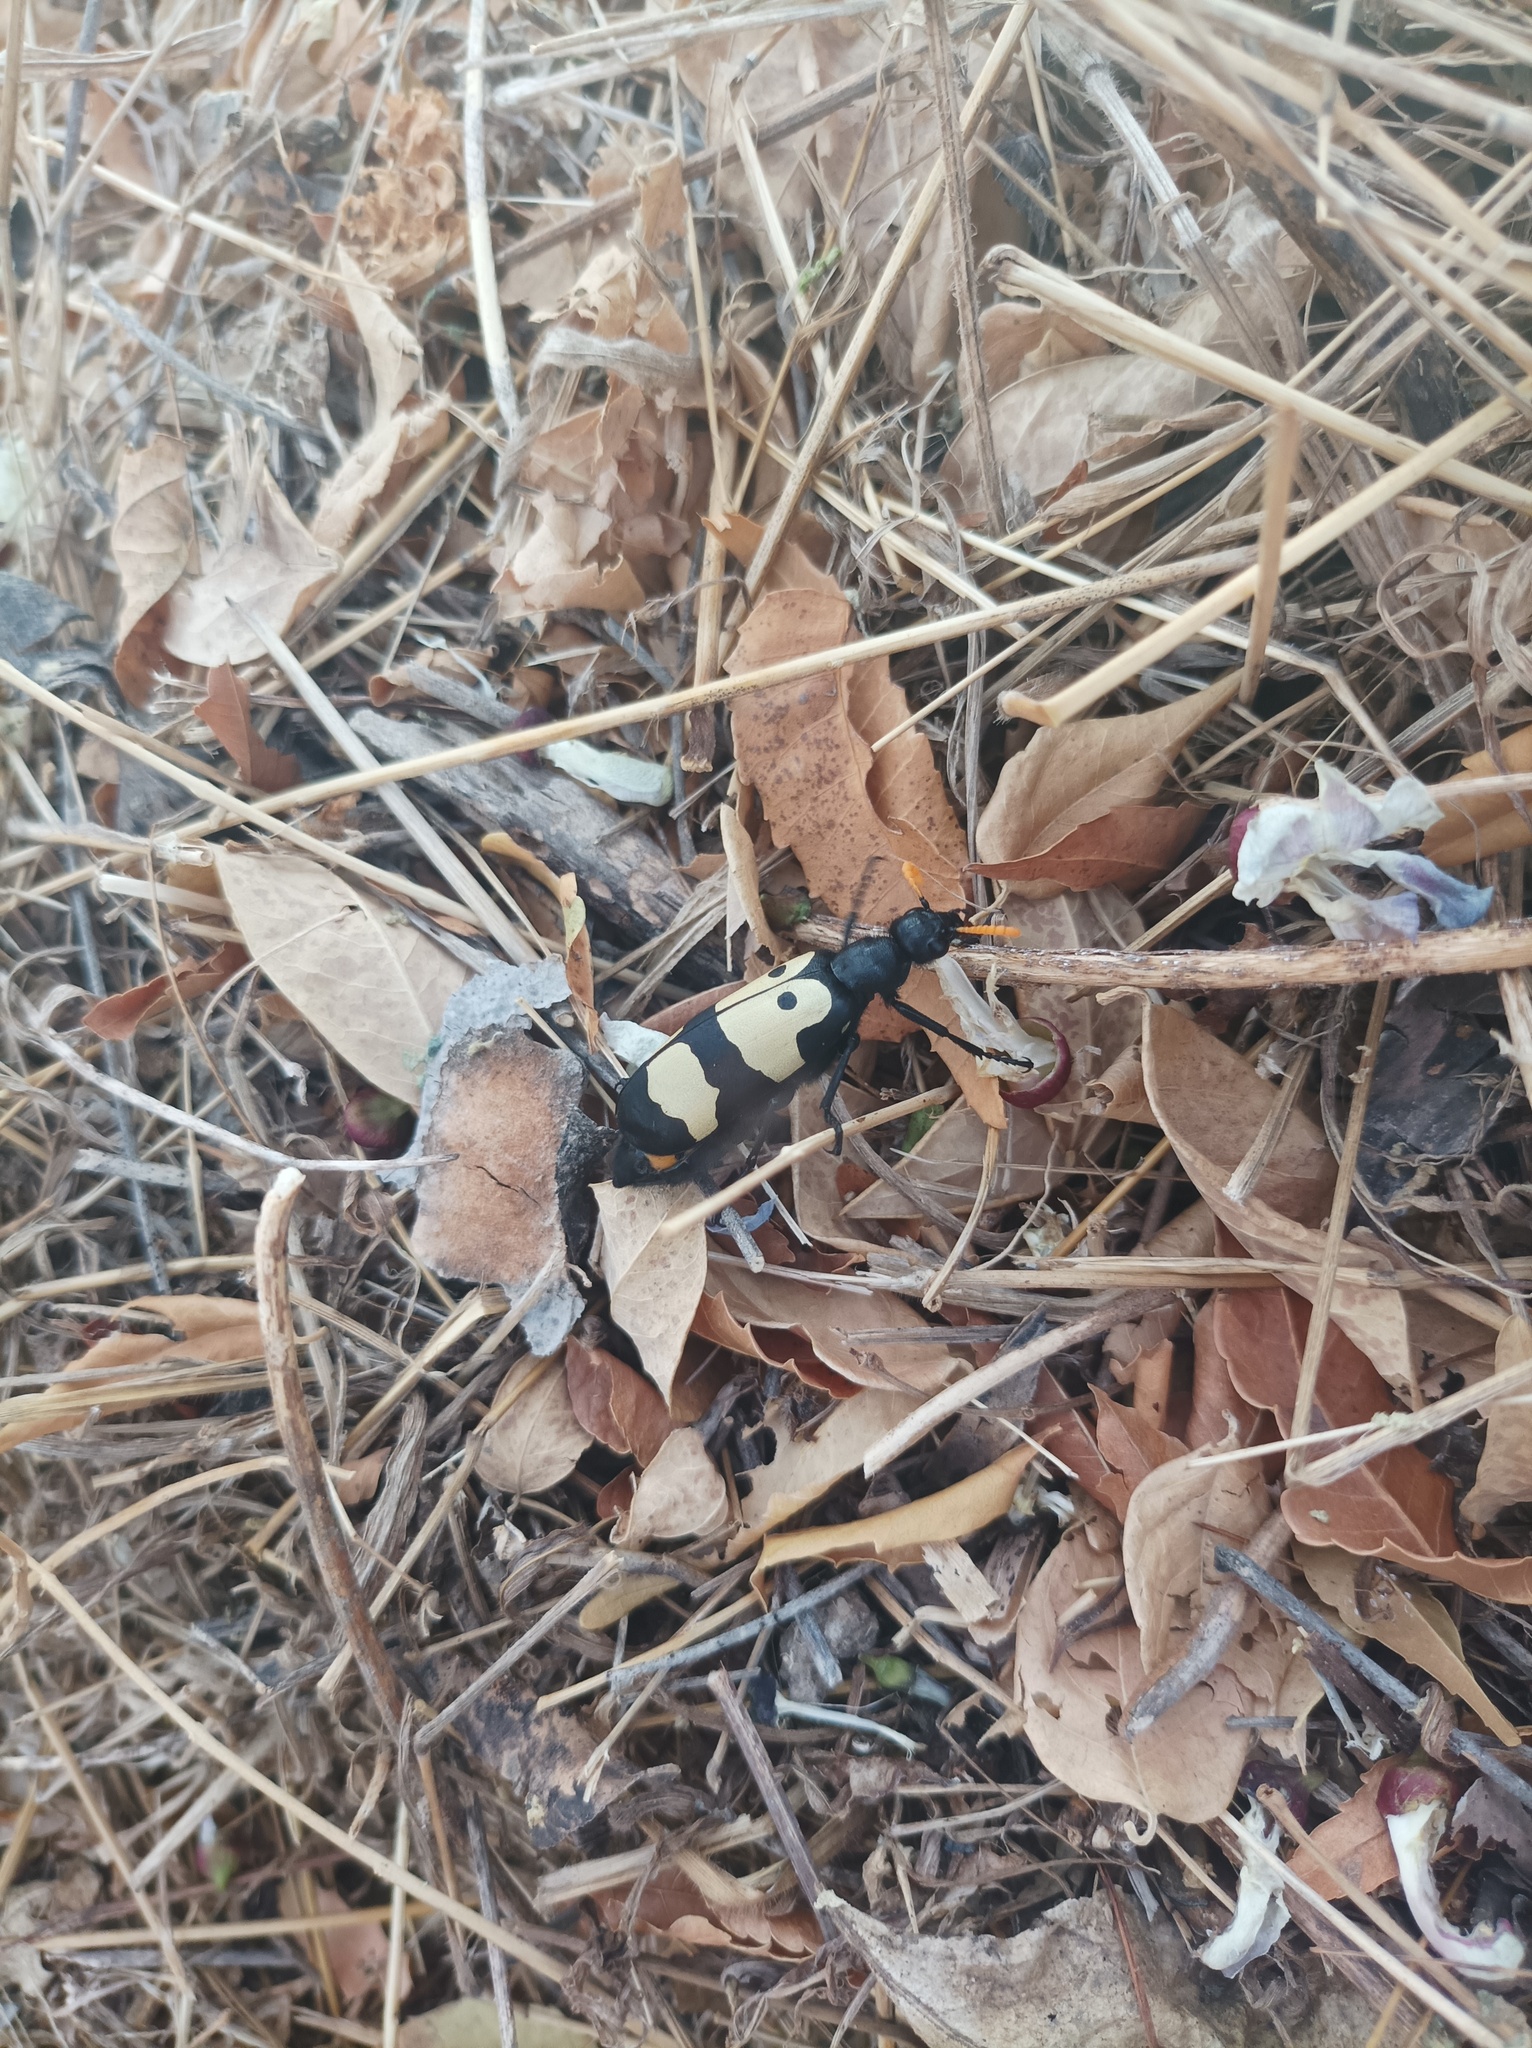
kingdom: Animalia
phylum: Arthropoda
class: Insecta
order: Coleoptera
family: Meloidae
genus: Hycleus
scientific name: Hycleus
